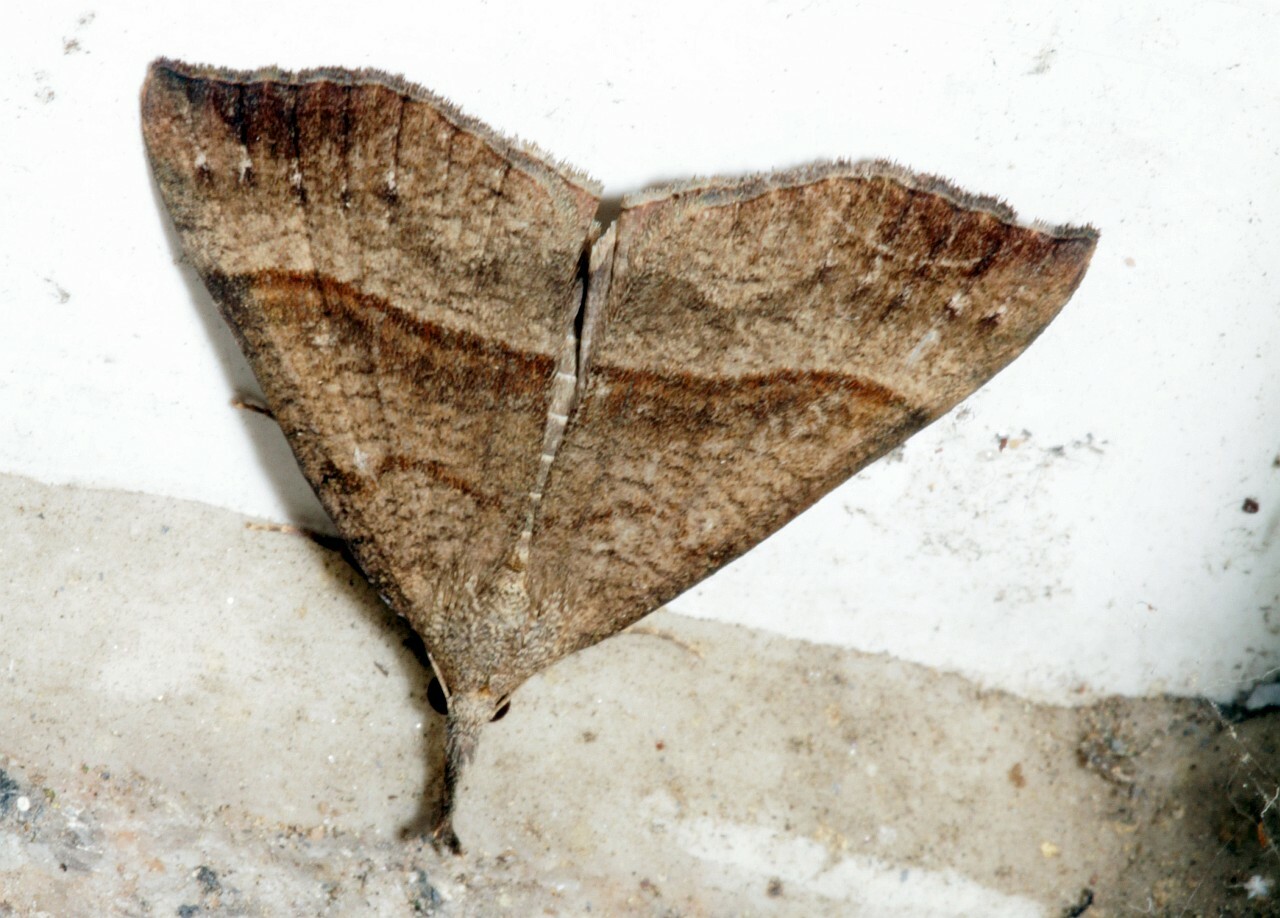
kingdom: Animalia
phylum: Arthropoda
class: Insecta
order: Lepidoptera
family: Erebidae
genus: Hypena
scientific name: Hypena proboscidalis
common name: Snout
